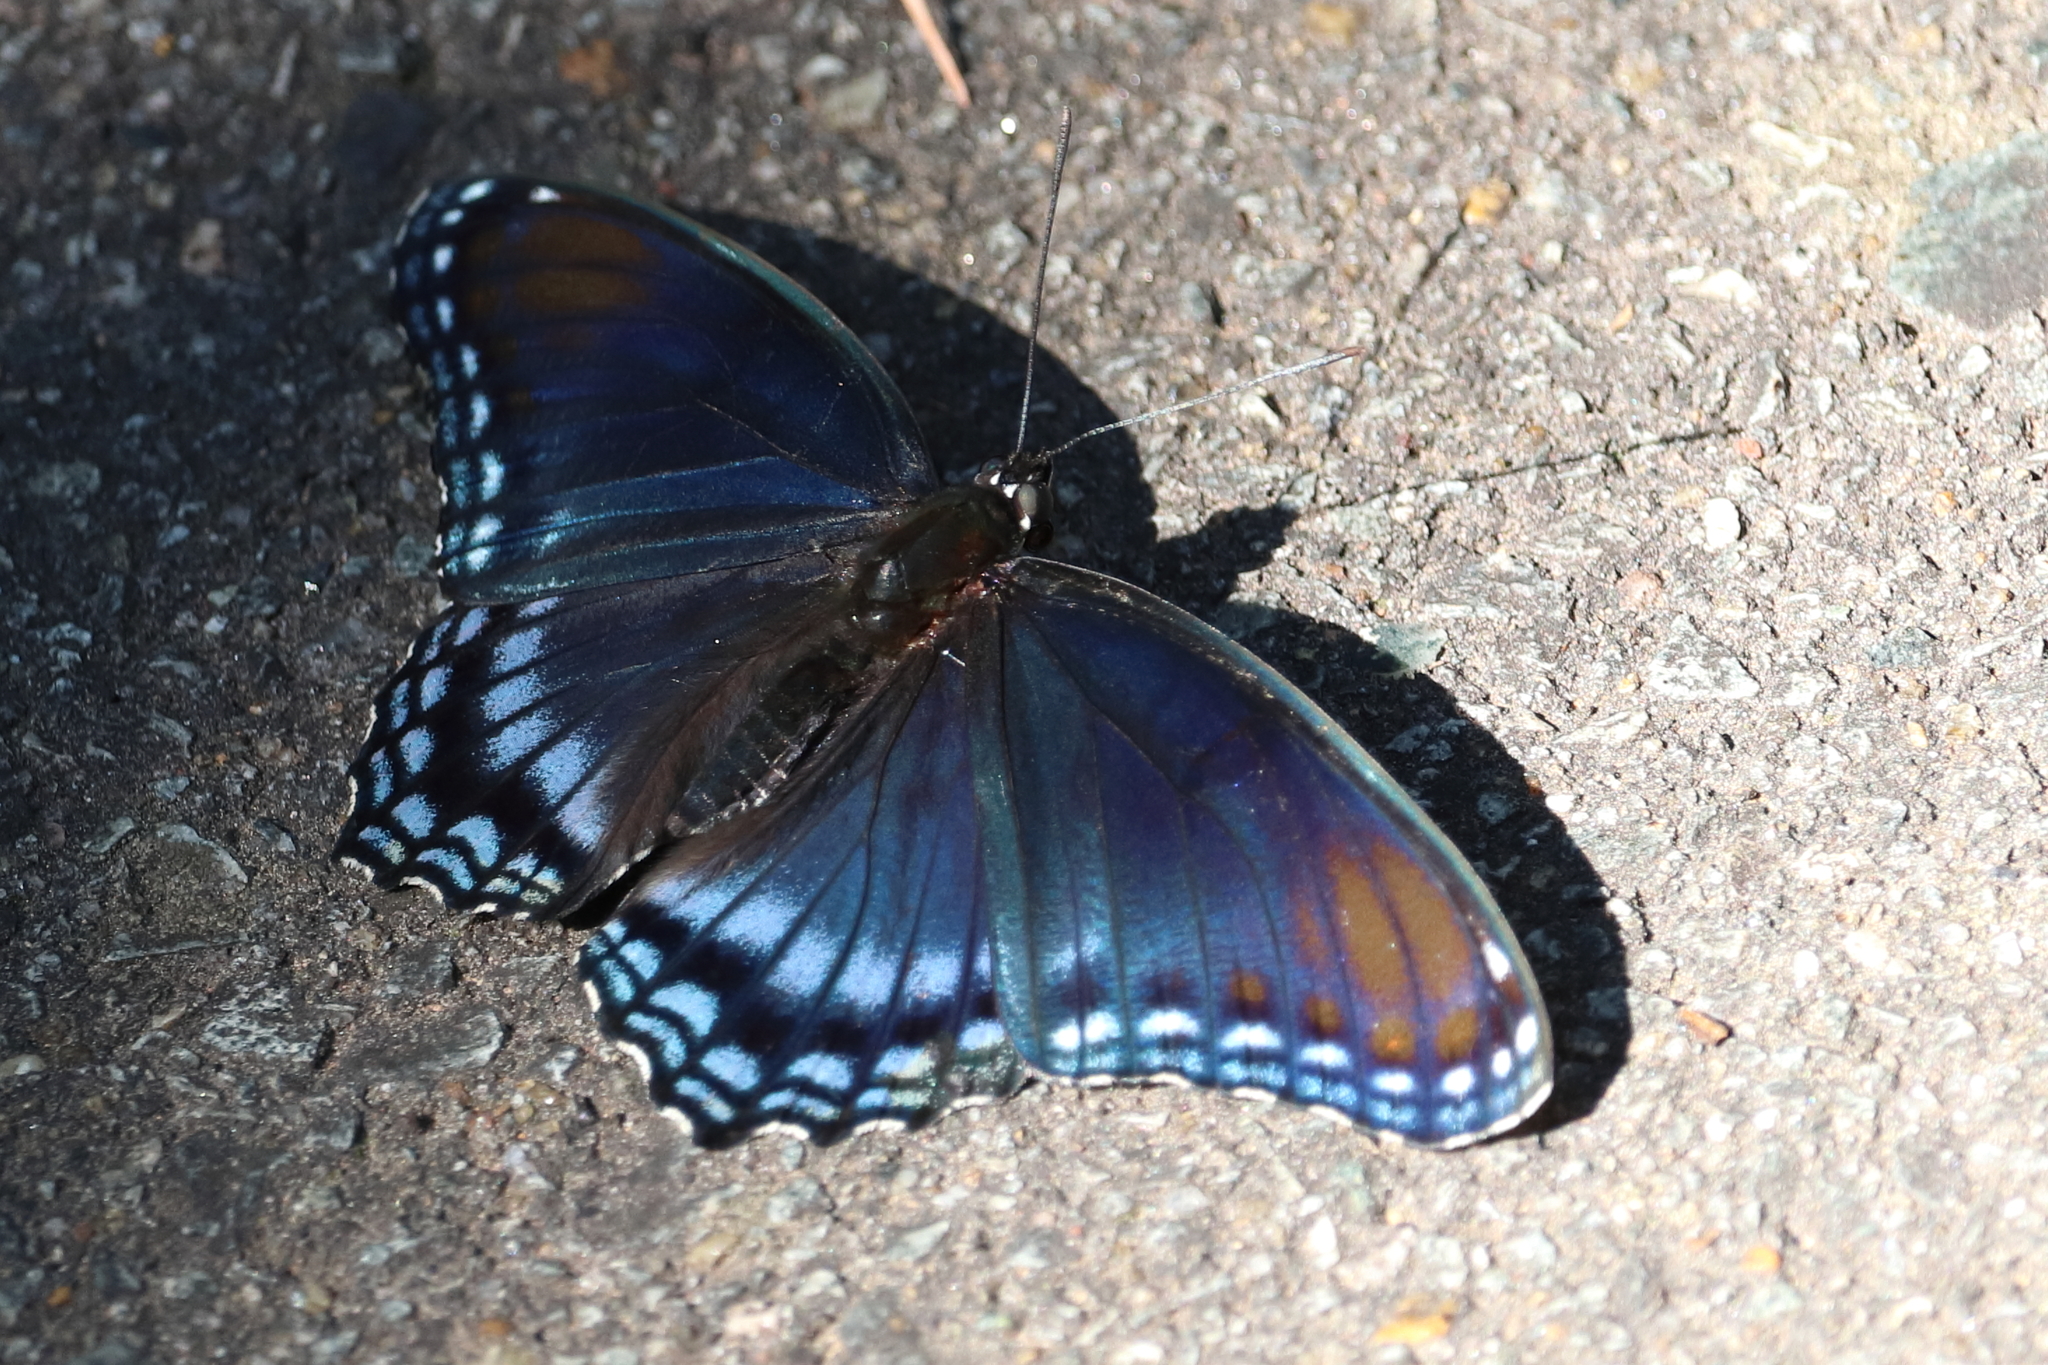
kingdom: Animalia
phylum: Arthropoda
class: Insecta
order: Lepidoptera
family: Nymphalidae
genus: Limenitis
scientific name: Limenitis astyanax
